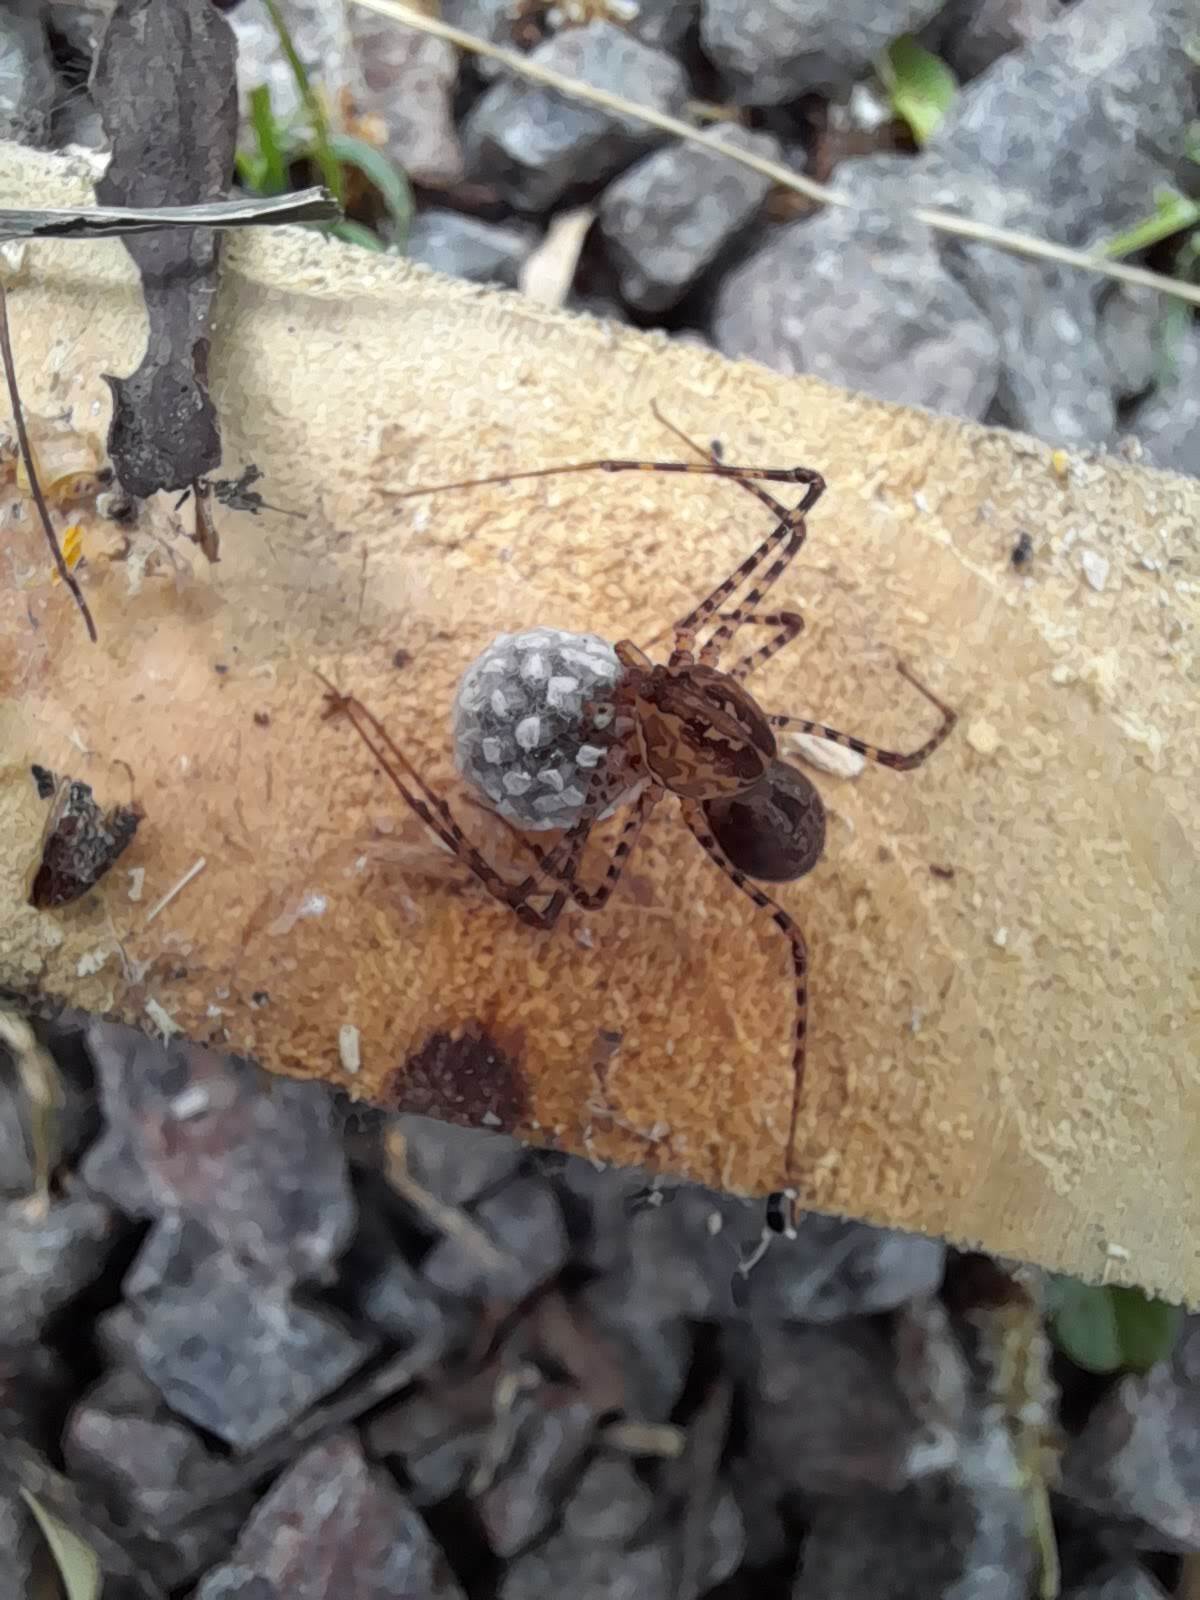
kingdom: Animalia
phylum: Arthropoda
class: Arachnida
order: Araneae
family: Scytodidae
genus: Scytodes
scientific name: Scytodes globula
